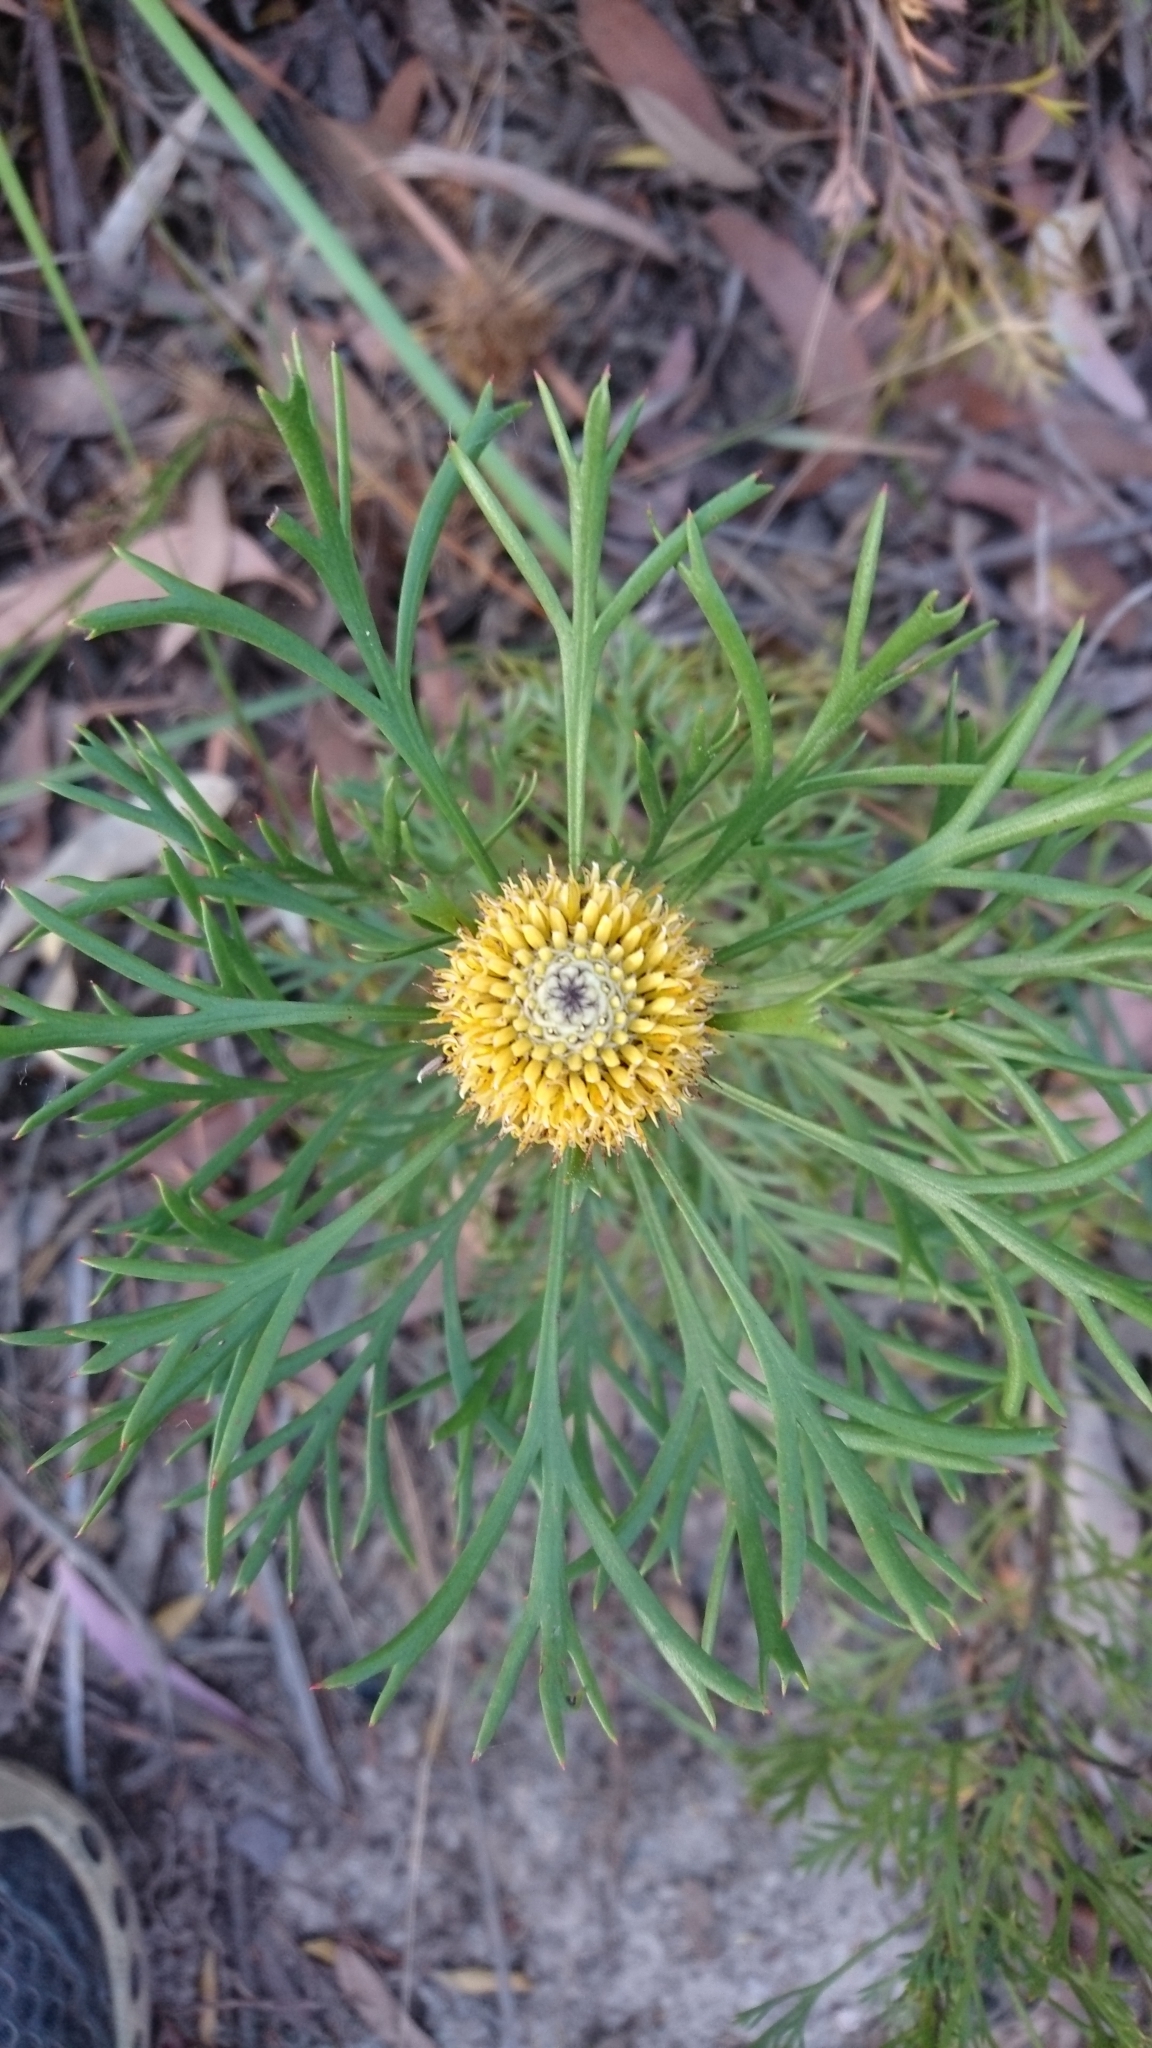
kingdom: Plantae
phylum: Tracheophyta
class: Magnoliopsida
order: Proteales
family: Proteaceae
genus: Isopogon
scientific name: Isopogon anemonifolius
